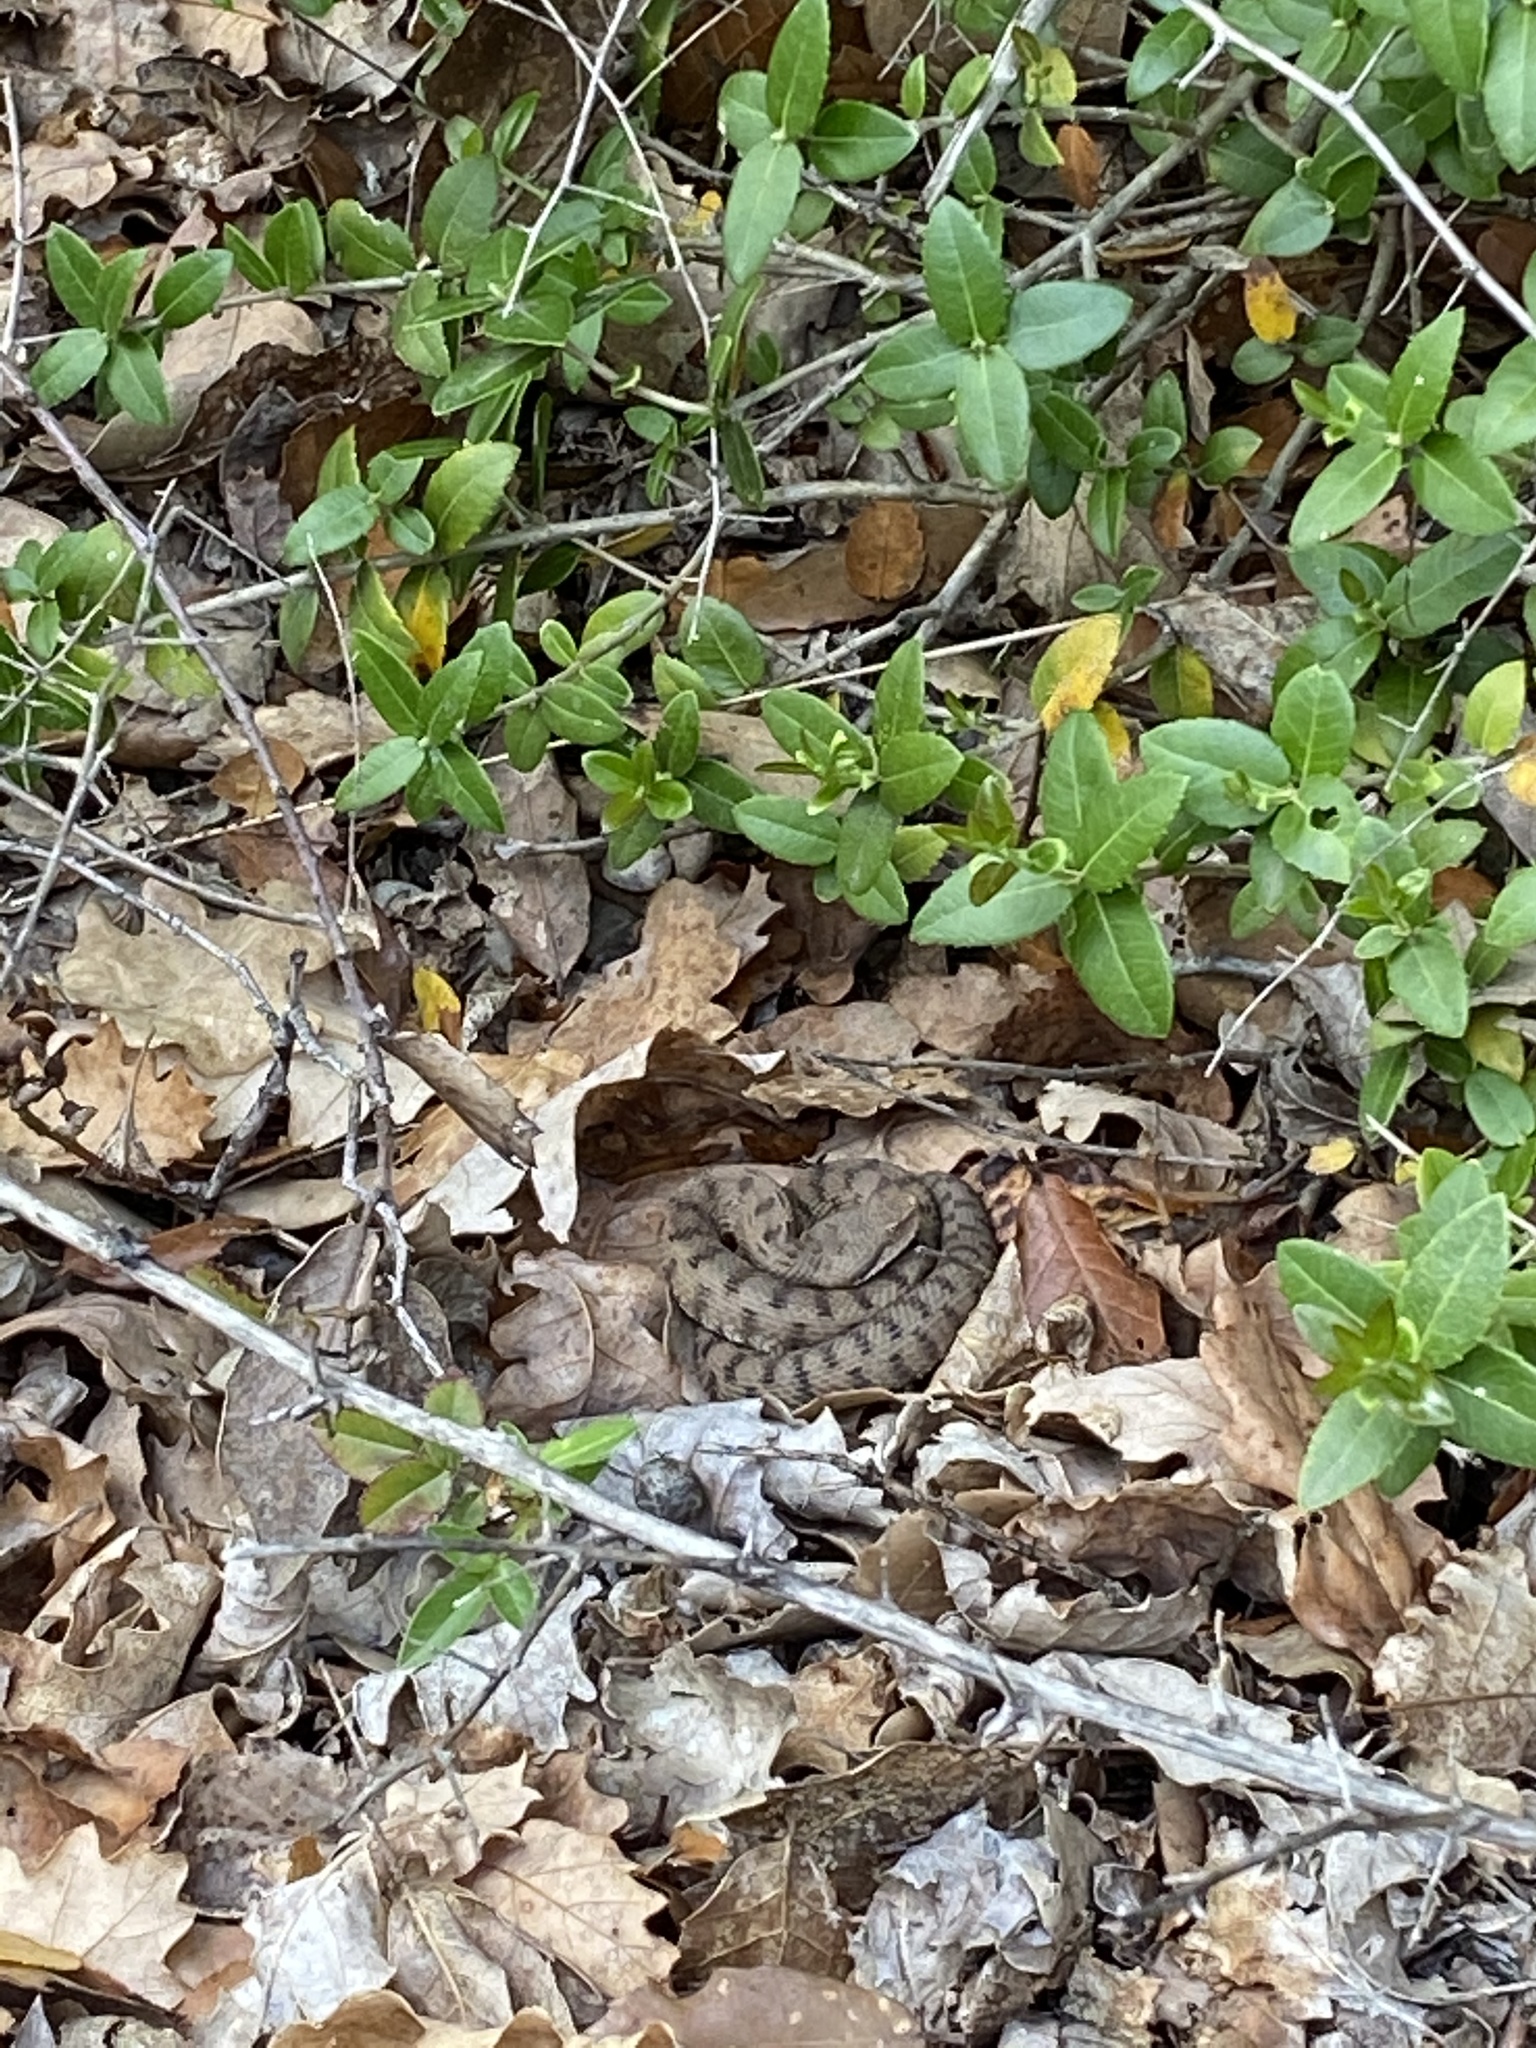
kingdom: Animalia
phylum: Chordata
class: Squamata
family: Viperidae
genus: Vipera
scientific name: Vipera aspis
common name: Asp viper
